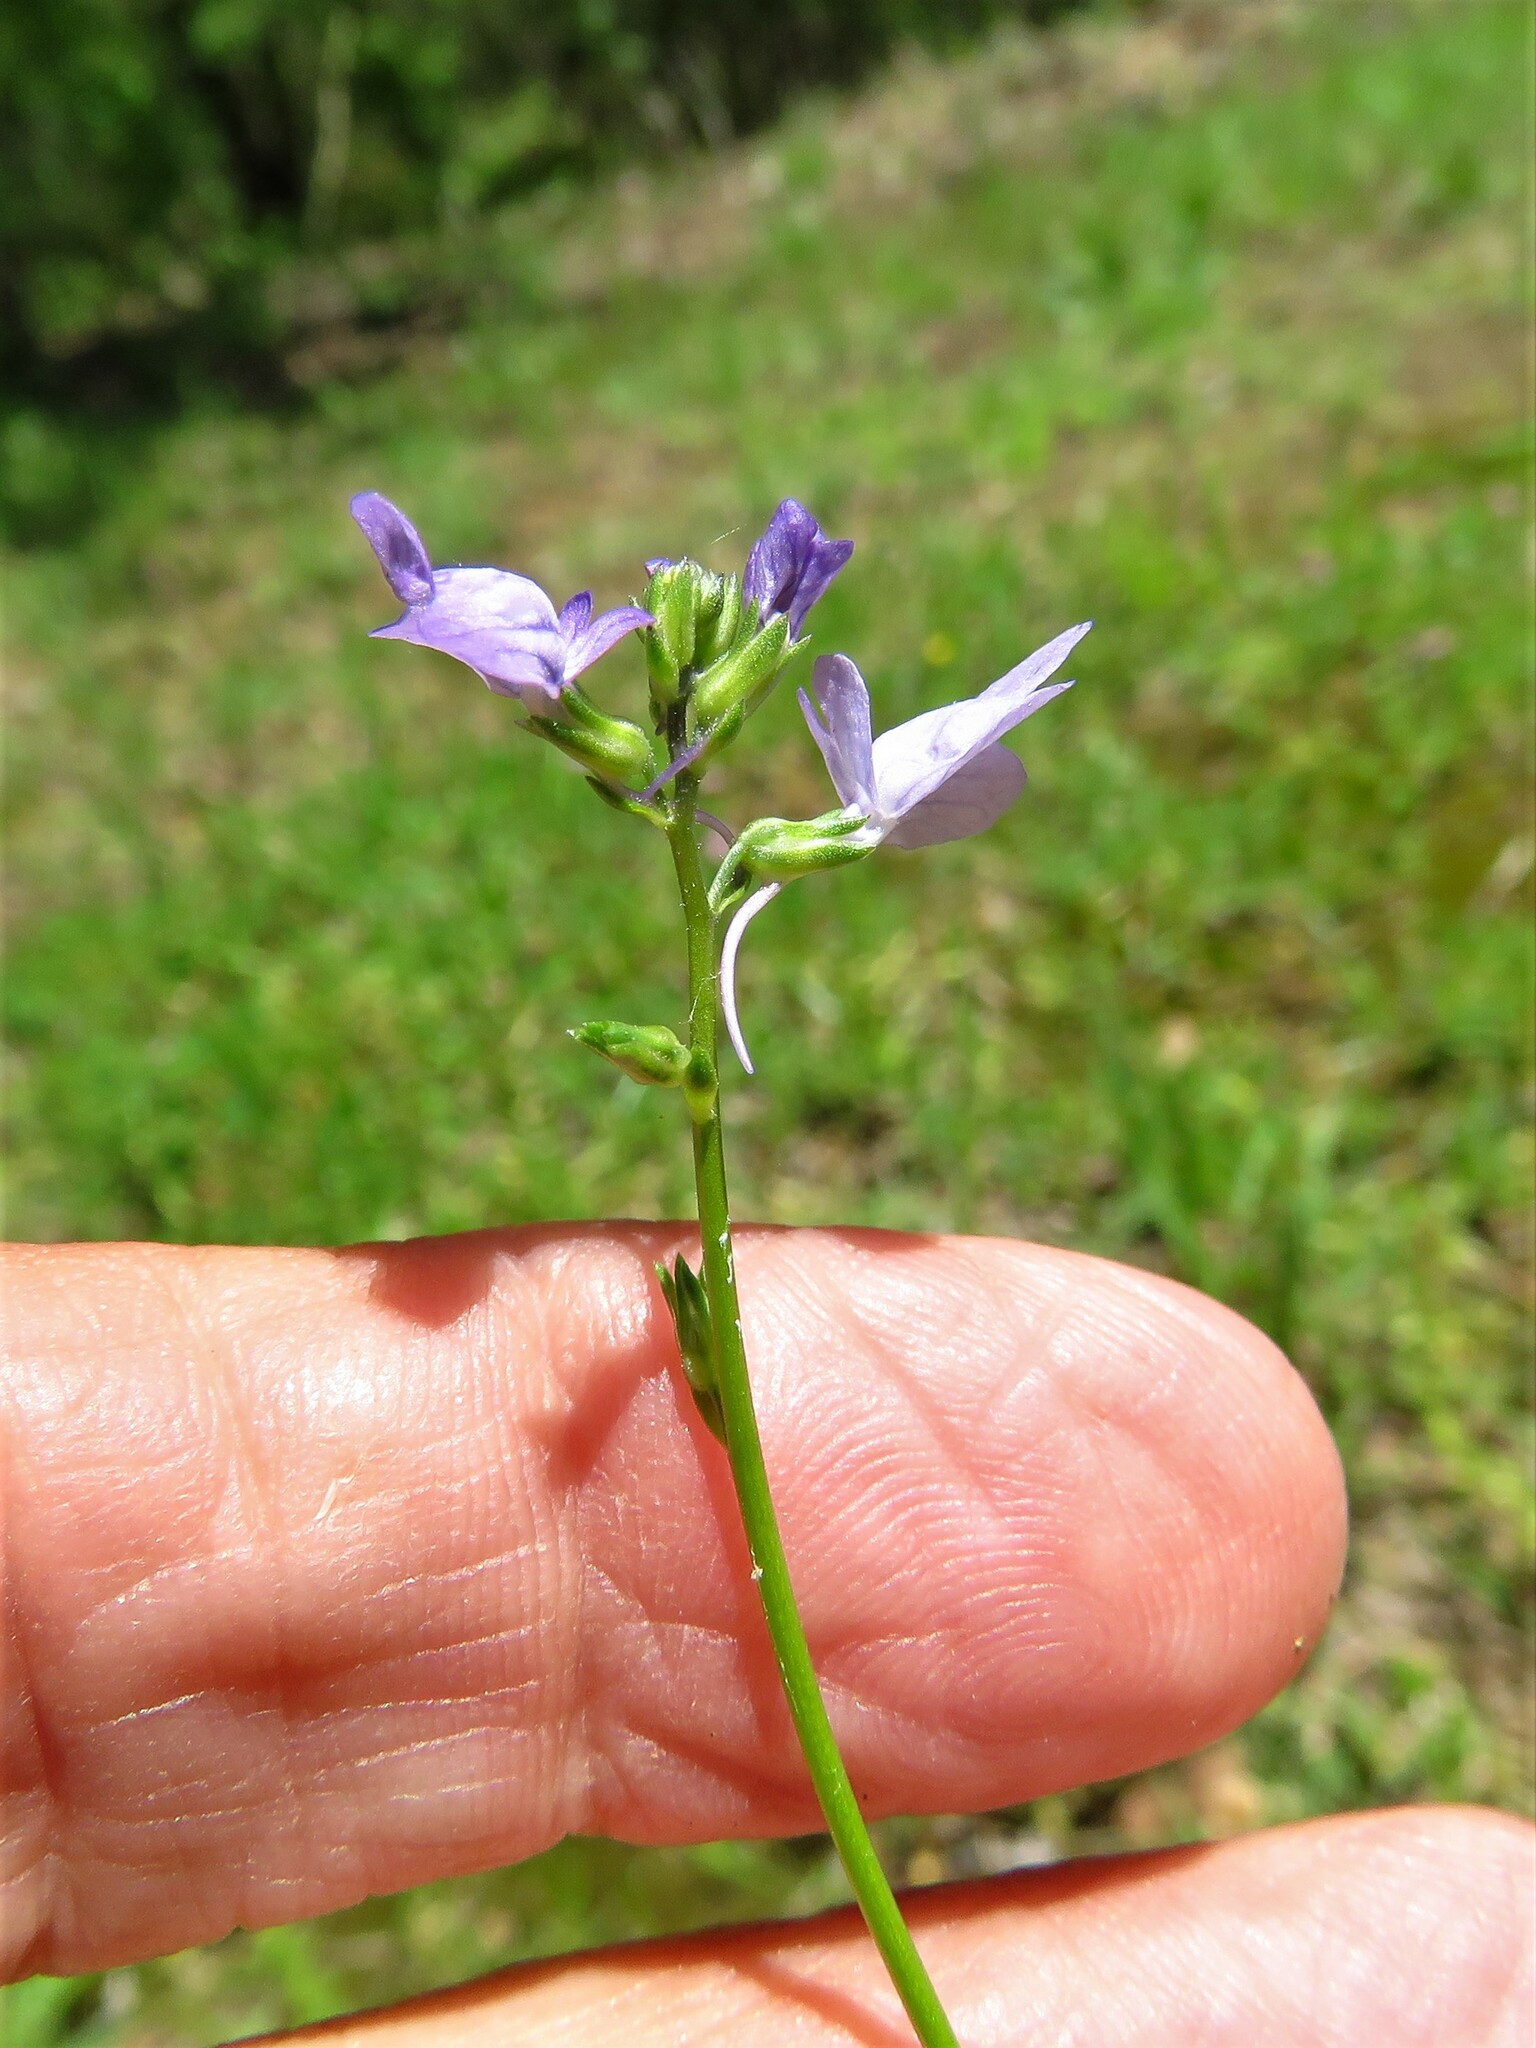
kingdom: Plantae
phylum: Tracheophyta
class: Magnoliopsida
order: Lamiales
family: Plantaginaceae
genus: Nuttallanthus
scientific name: Nuttallanthus texanus
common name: Texas toadflax
